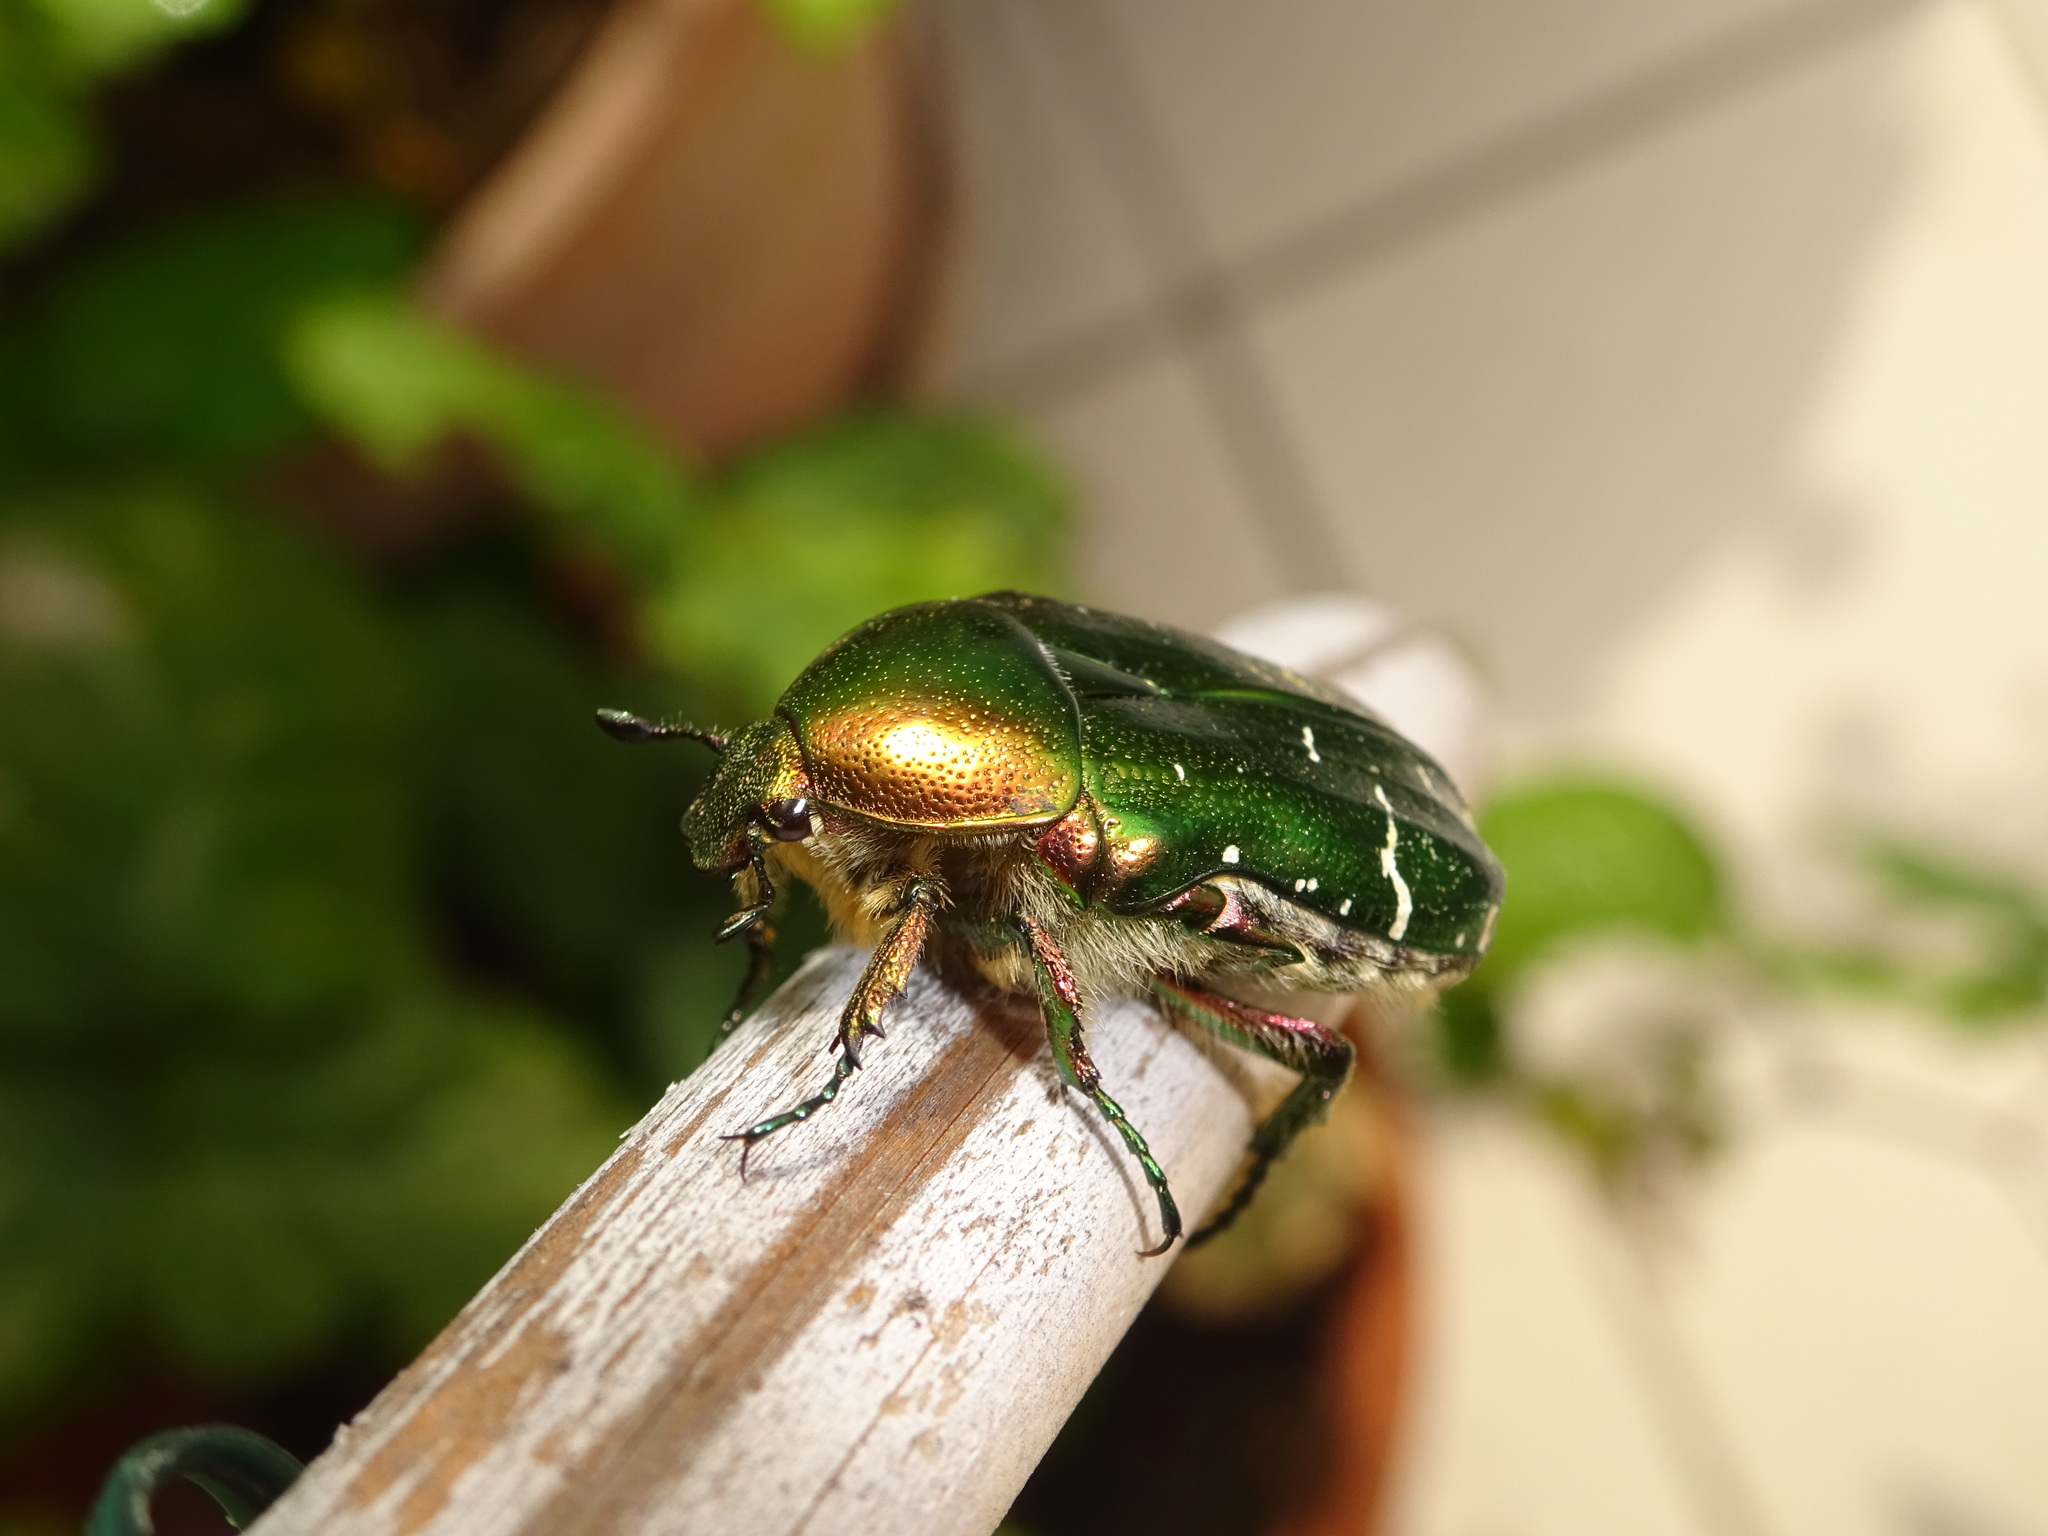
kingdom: Animalia
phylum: Arthropoda
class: Insecta
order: Coleoptera
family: Scarabaeidae
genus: Cetonia
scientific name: Cetonia aurata
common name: Rose chafer
